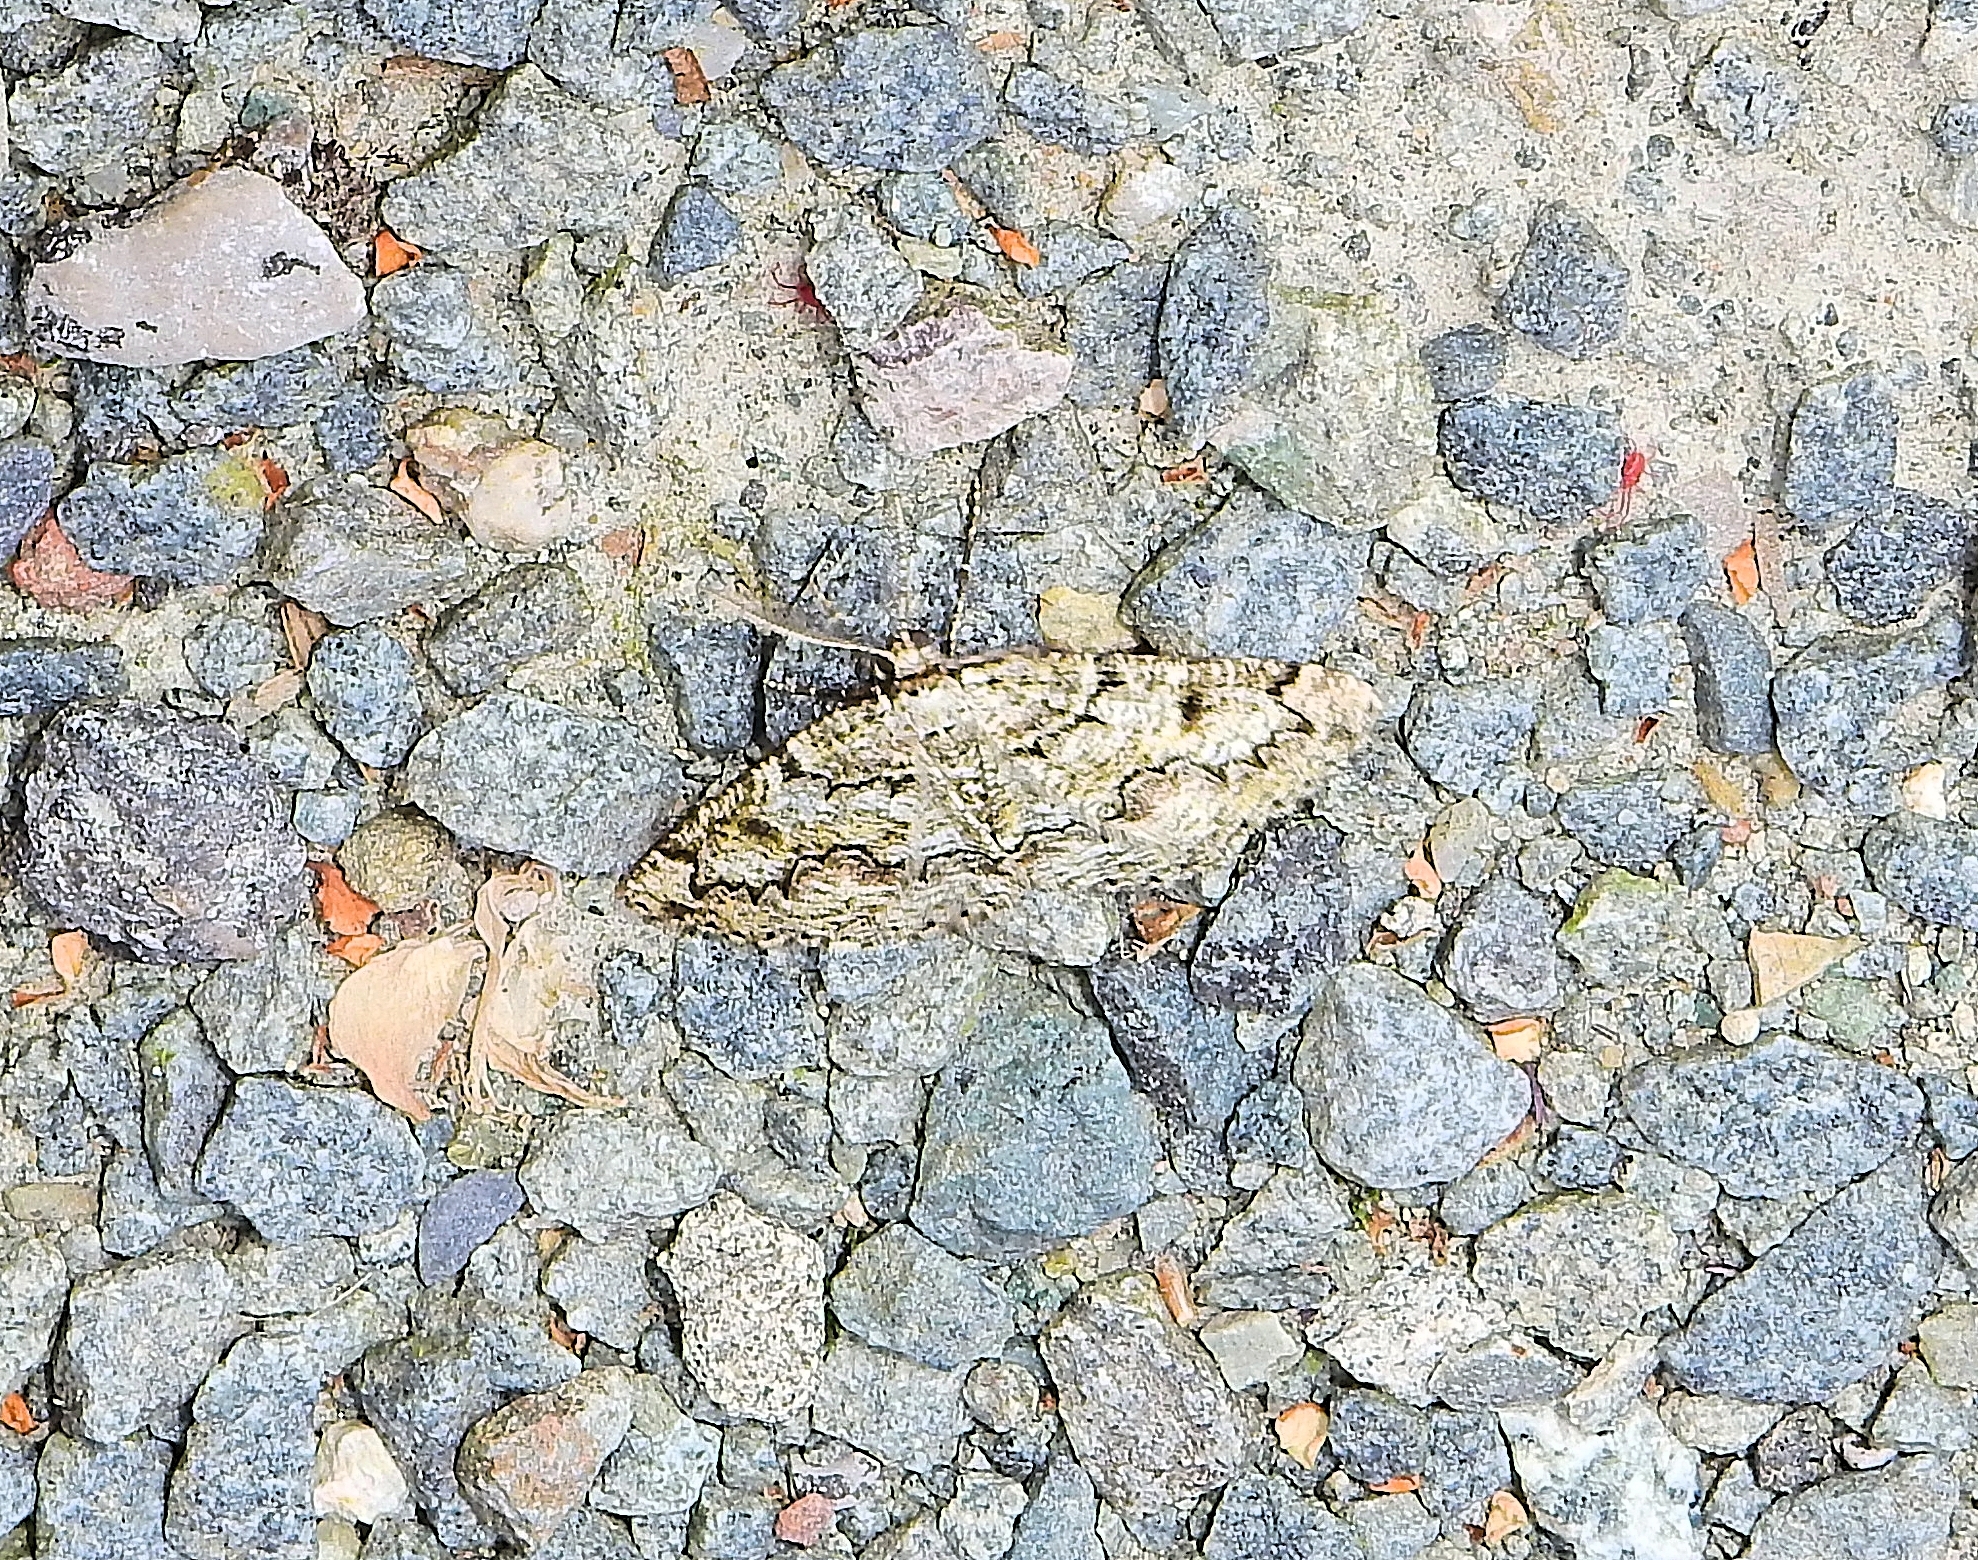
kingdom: Animalia
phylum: Arthropoda
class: Insecta
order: Lepidoptera
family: Geometridae
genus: Cleorodes
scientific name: Cleorodes lichenaria
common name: Brussels lace
